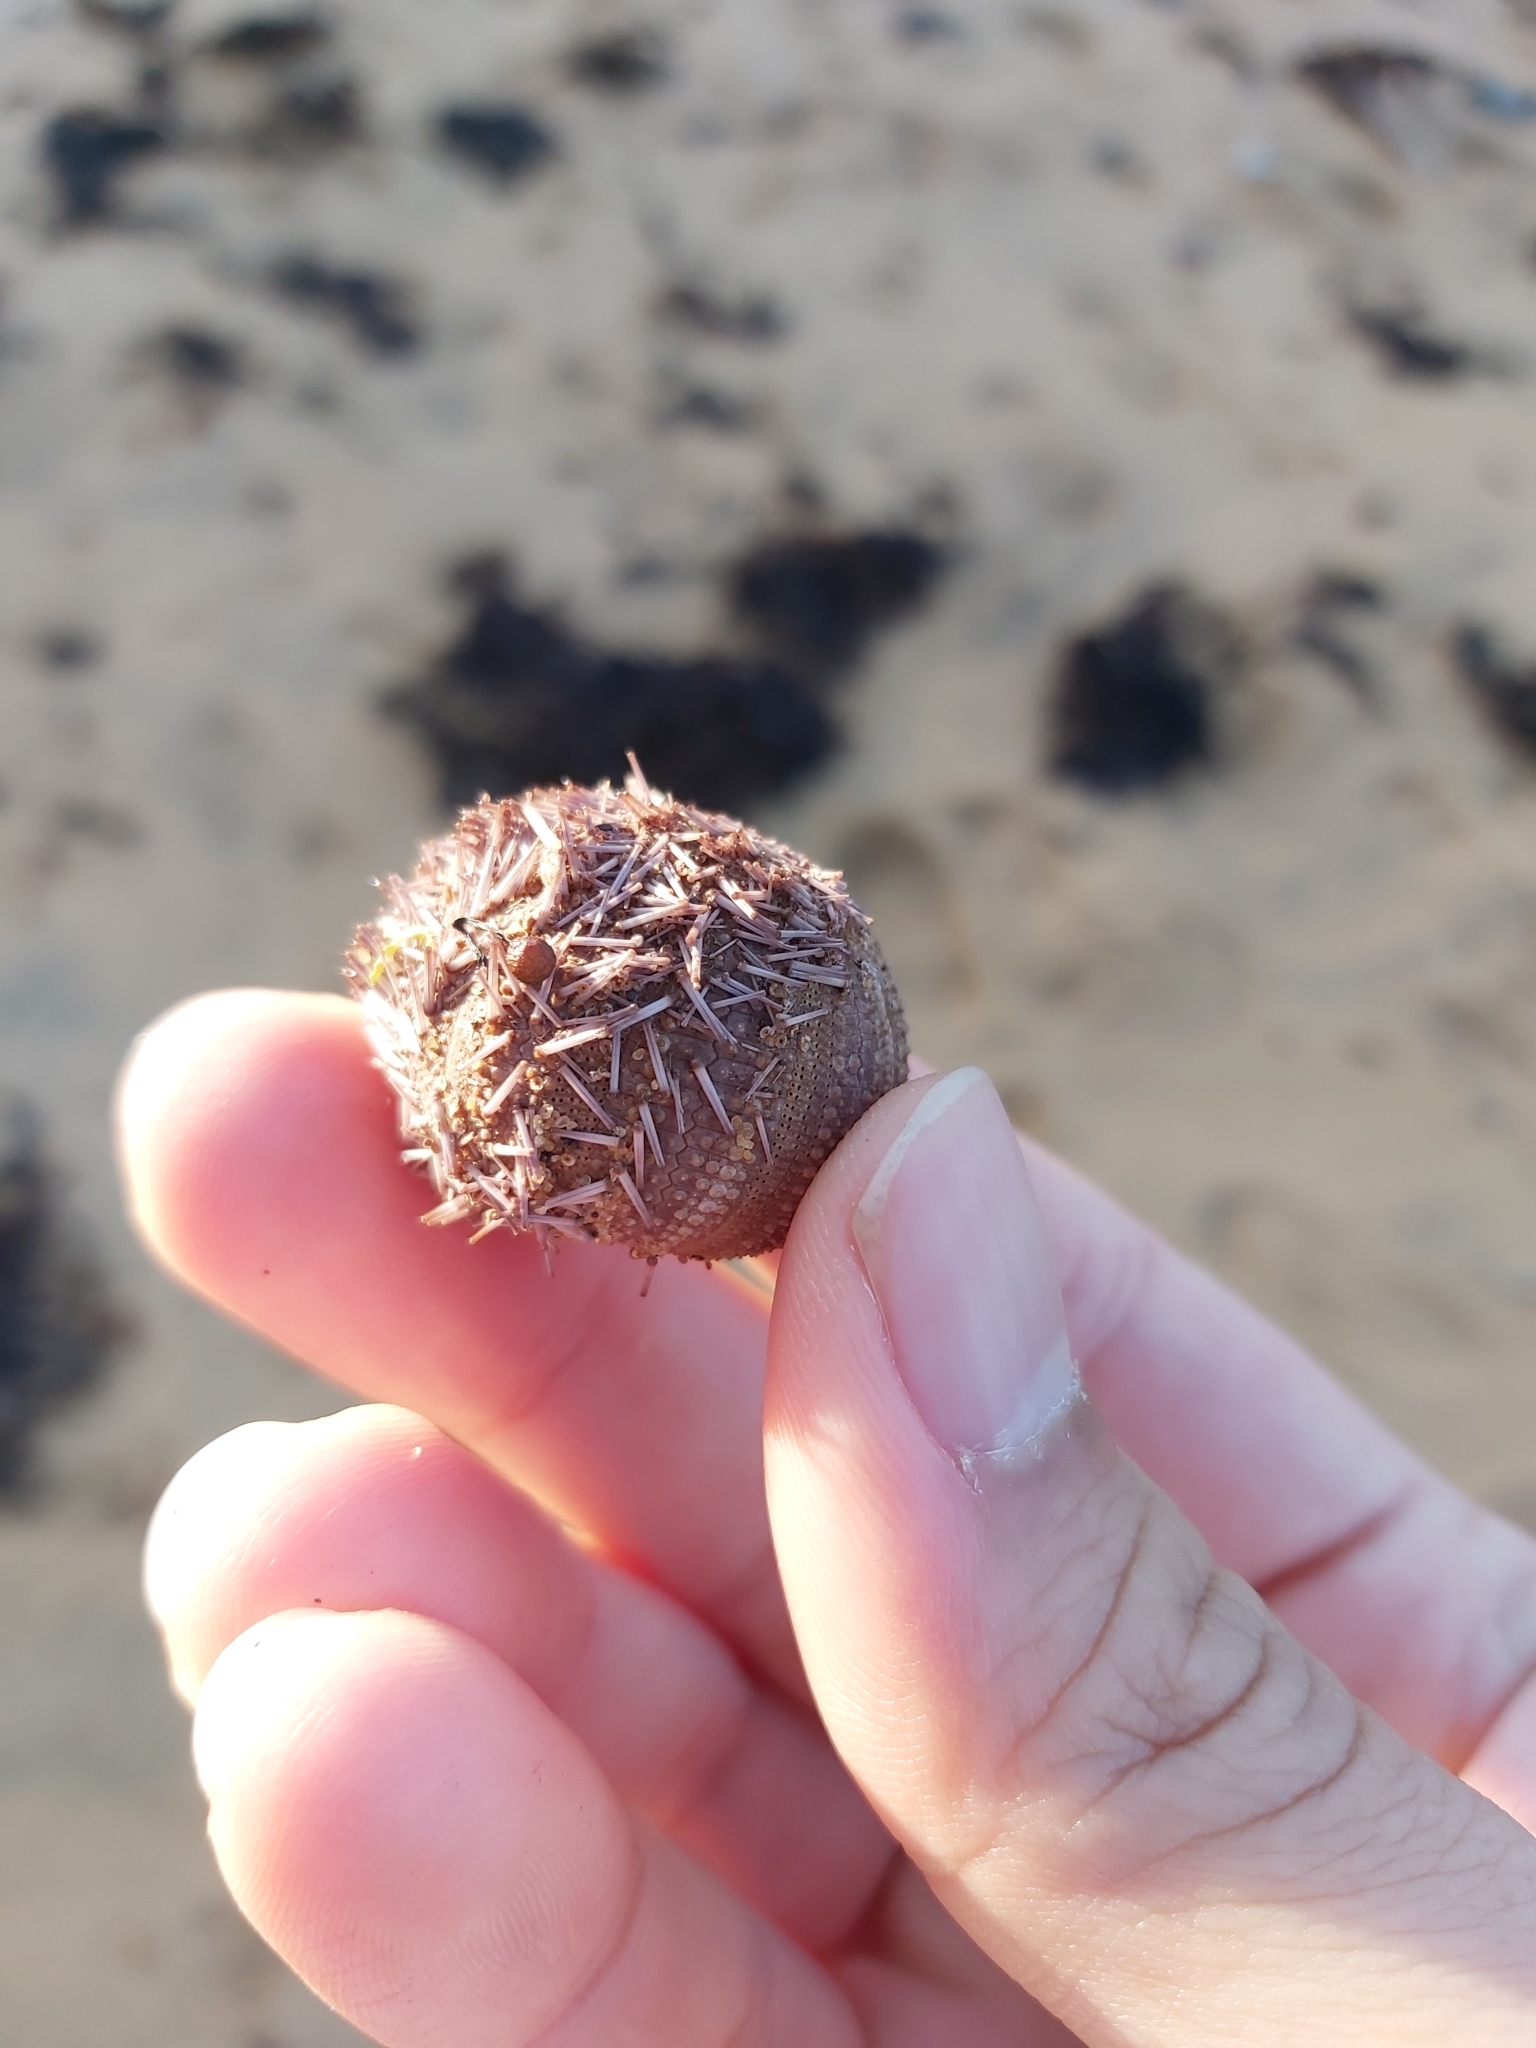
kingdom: Animalia
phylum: Echinodermata
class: Echinoidea
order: Camarodonta
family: Temnopleuridae
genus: Holopneustes
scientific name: Holopneustes purpurascens
